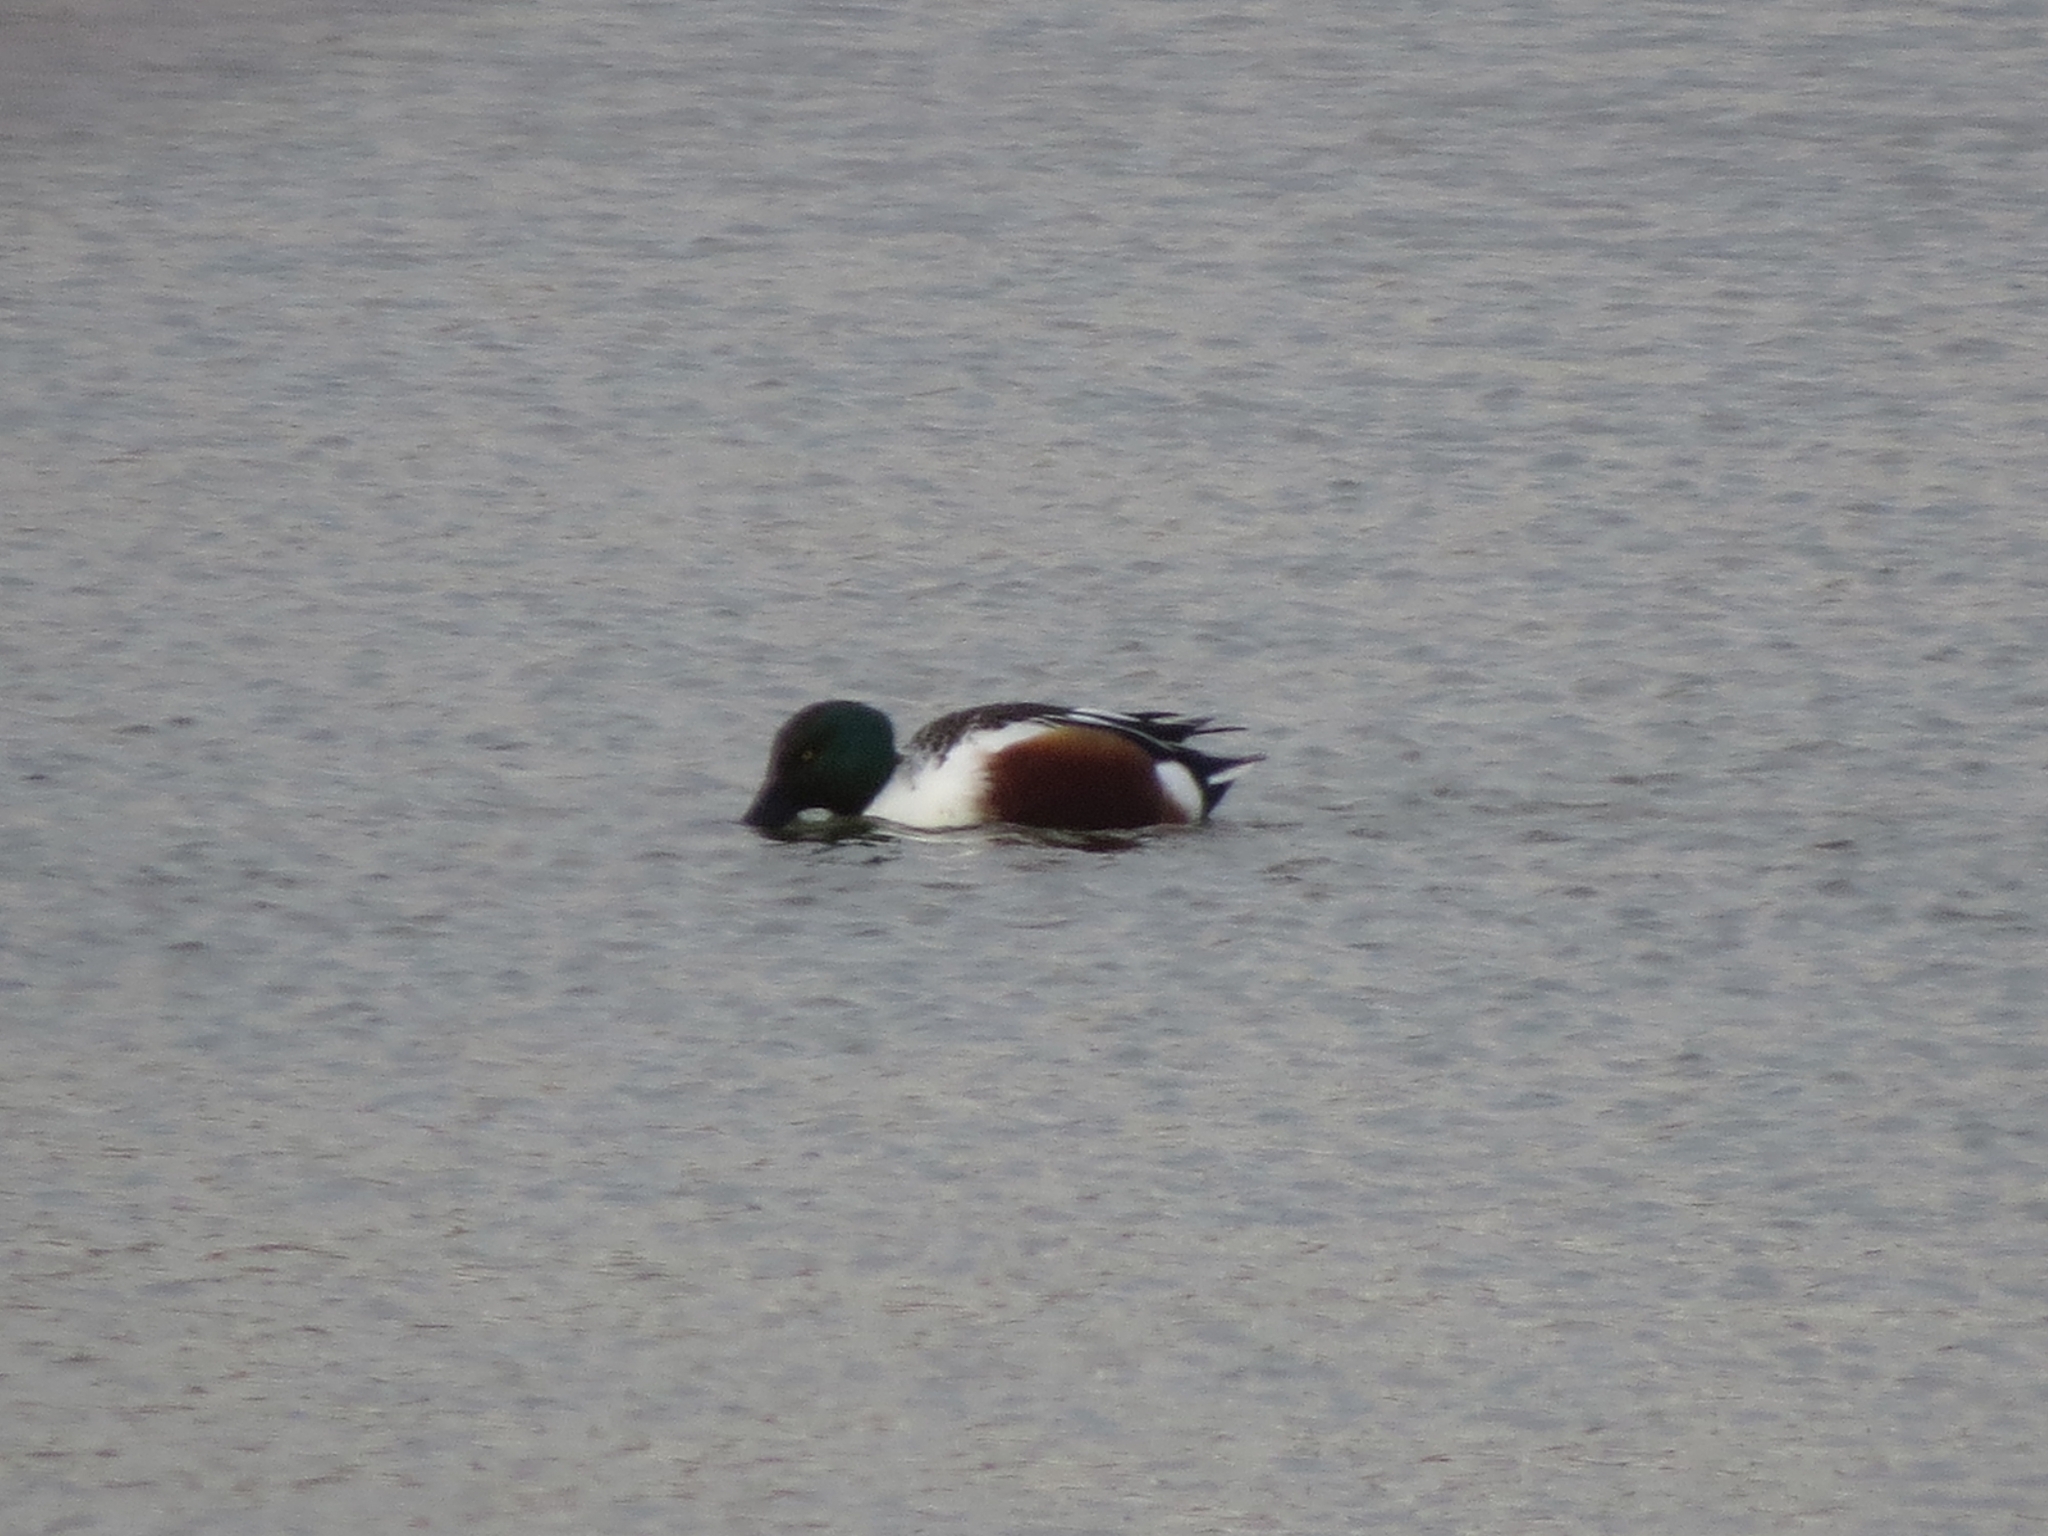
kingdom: Animalia
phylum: Chordata
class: Aves
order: Anseriformes
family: Anatidae
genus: Spatula
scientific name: Spatula clypeata
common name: Northern shoveler
